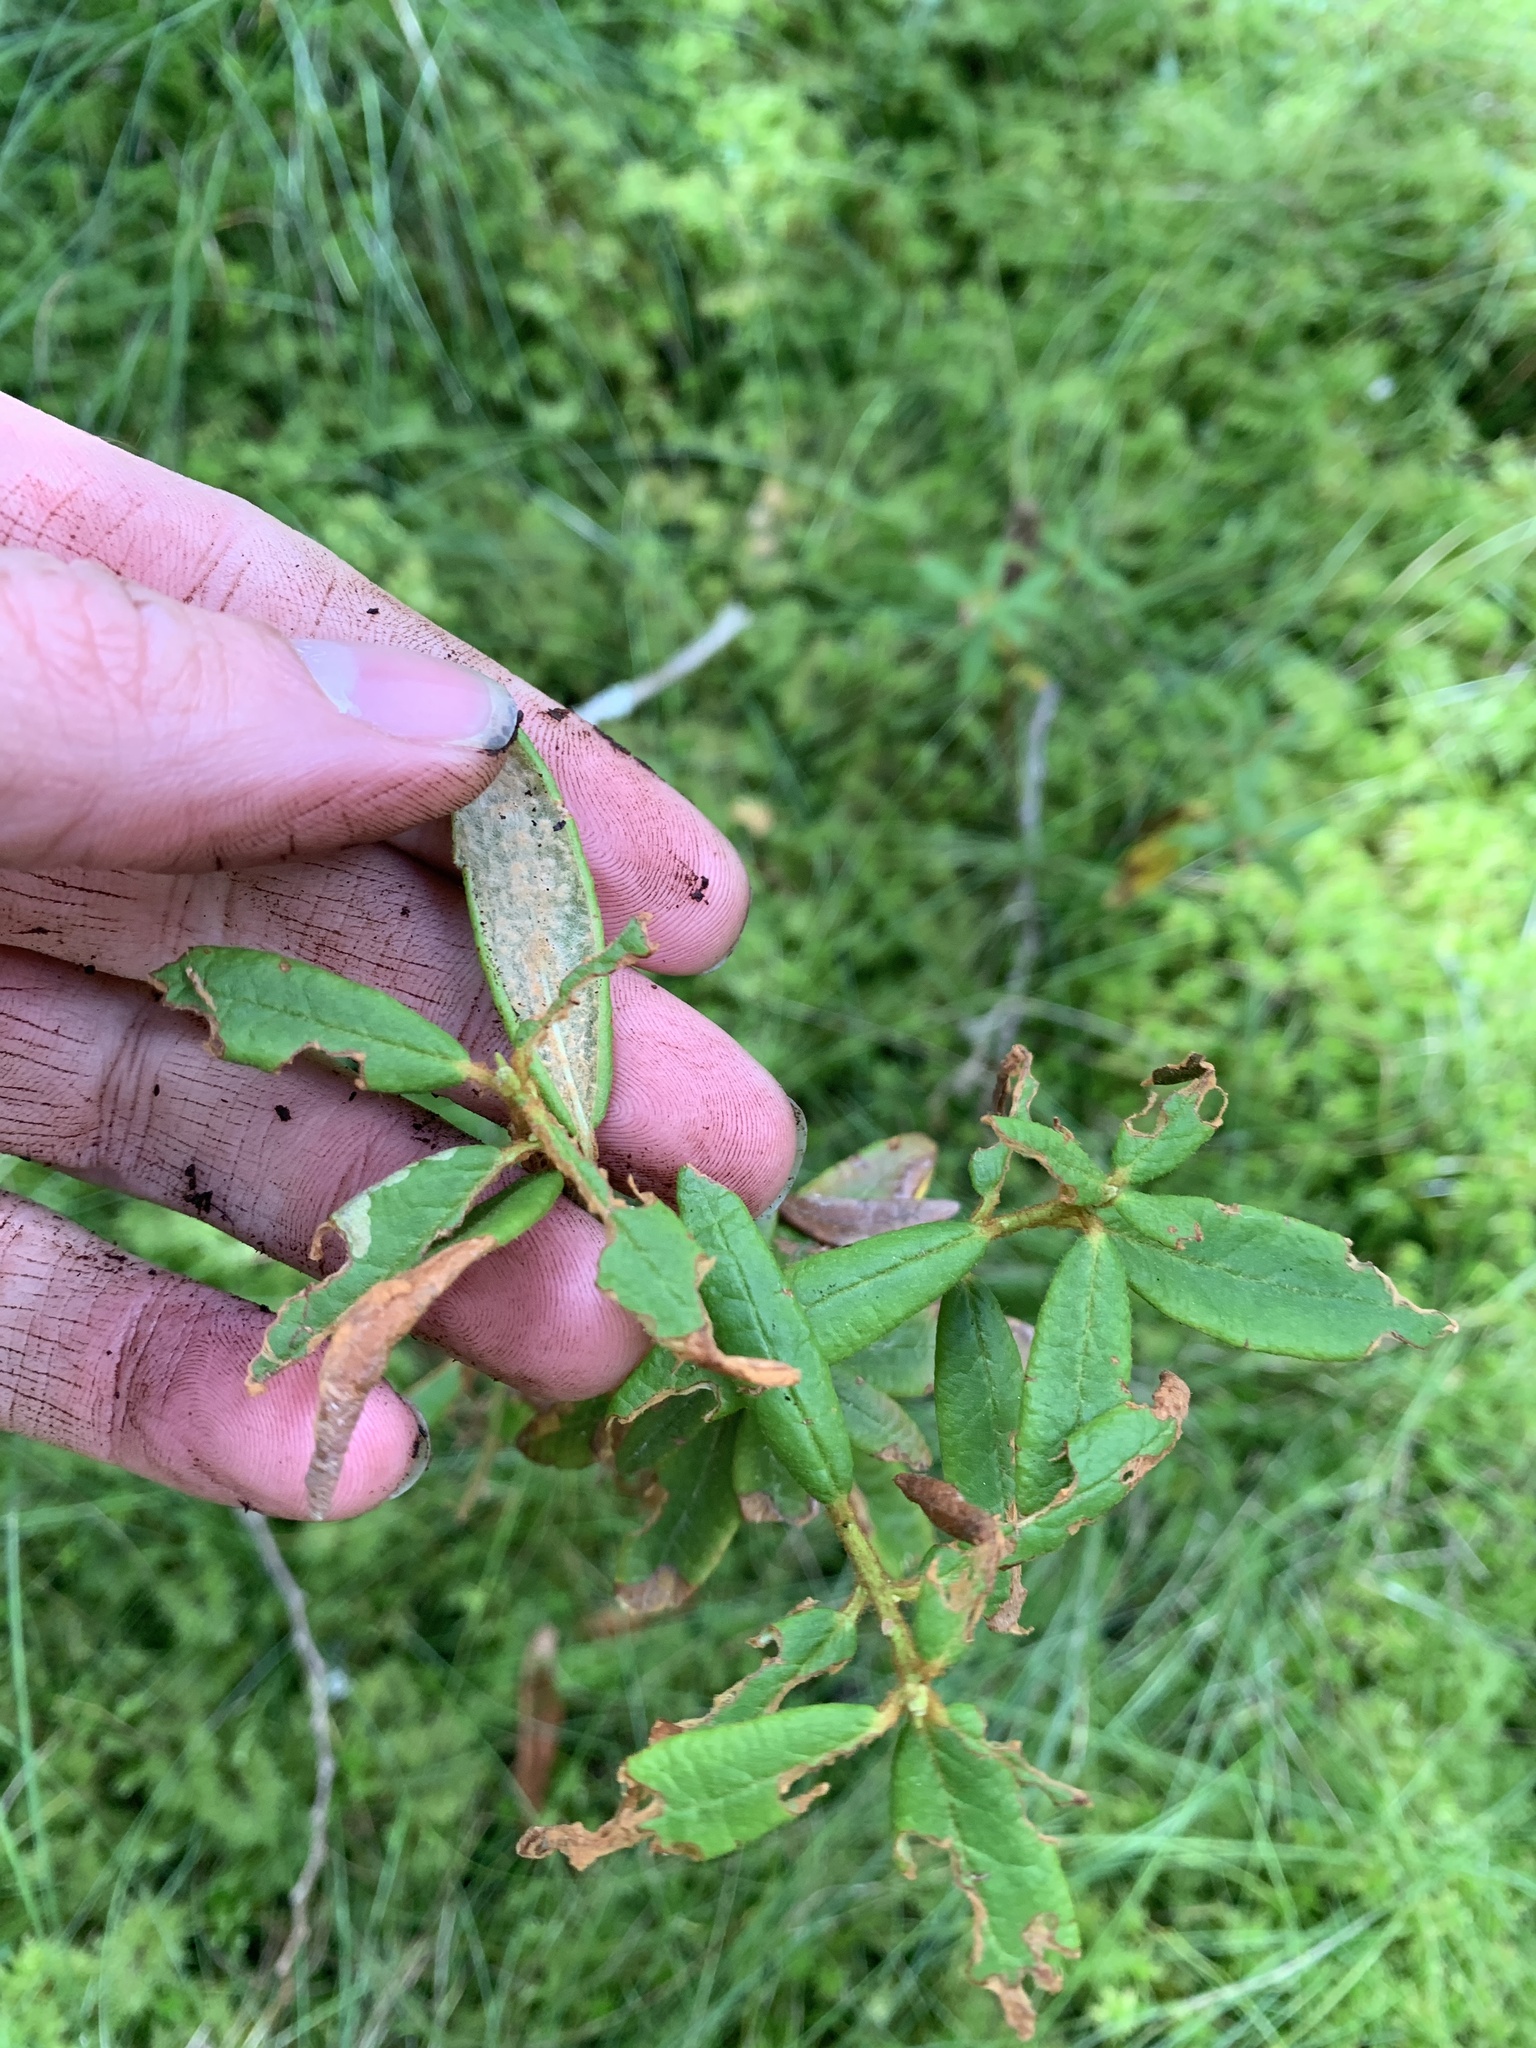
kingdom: Plantae
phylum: Tracheophyta
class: Magnoliopsida
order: Ericales
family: Ericaceae
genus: Rhododendron
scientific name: Rhododendron groenlandicum
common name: Bog labrador tea
